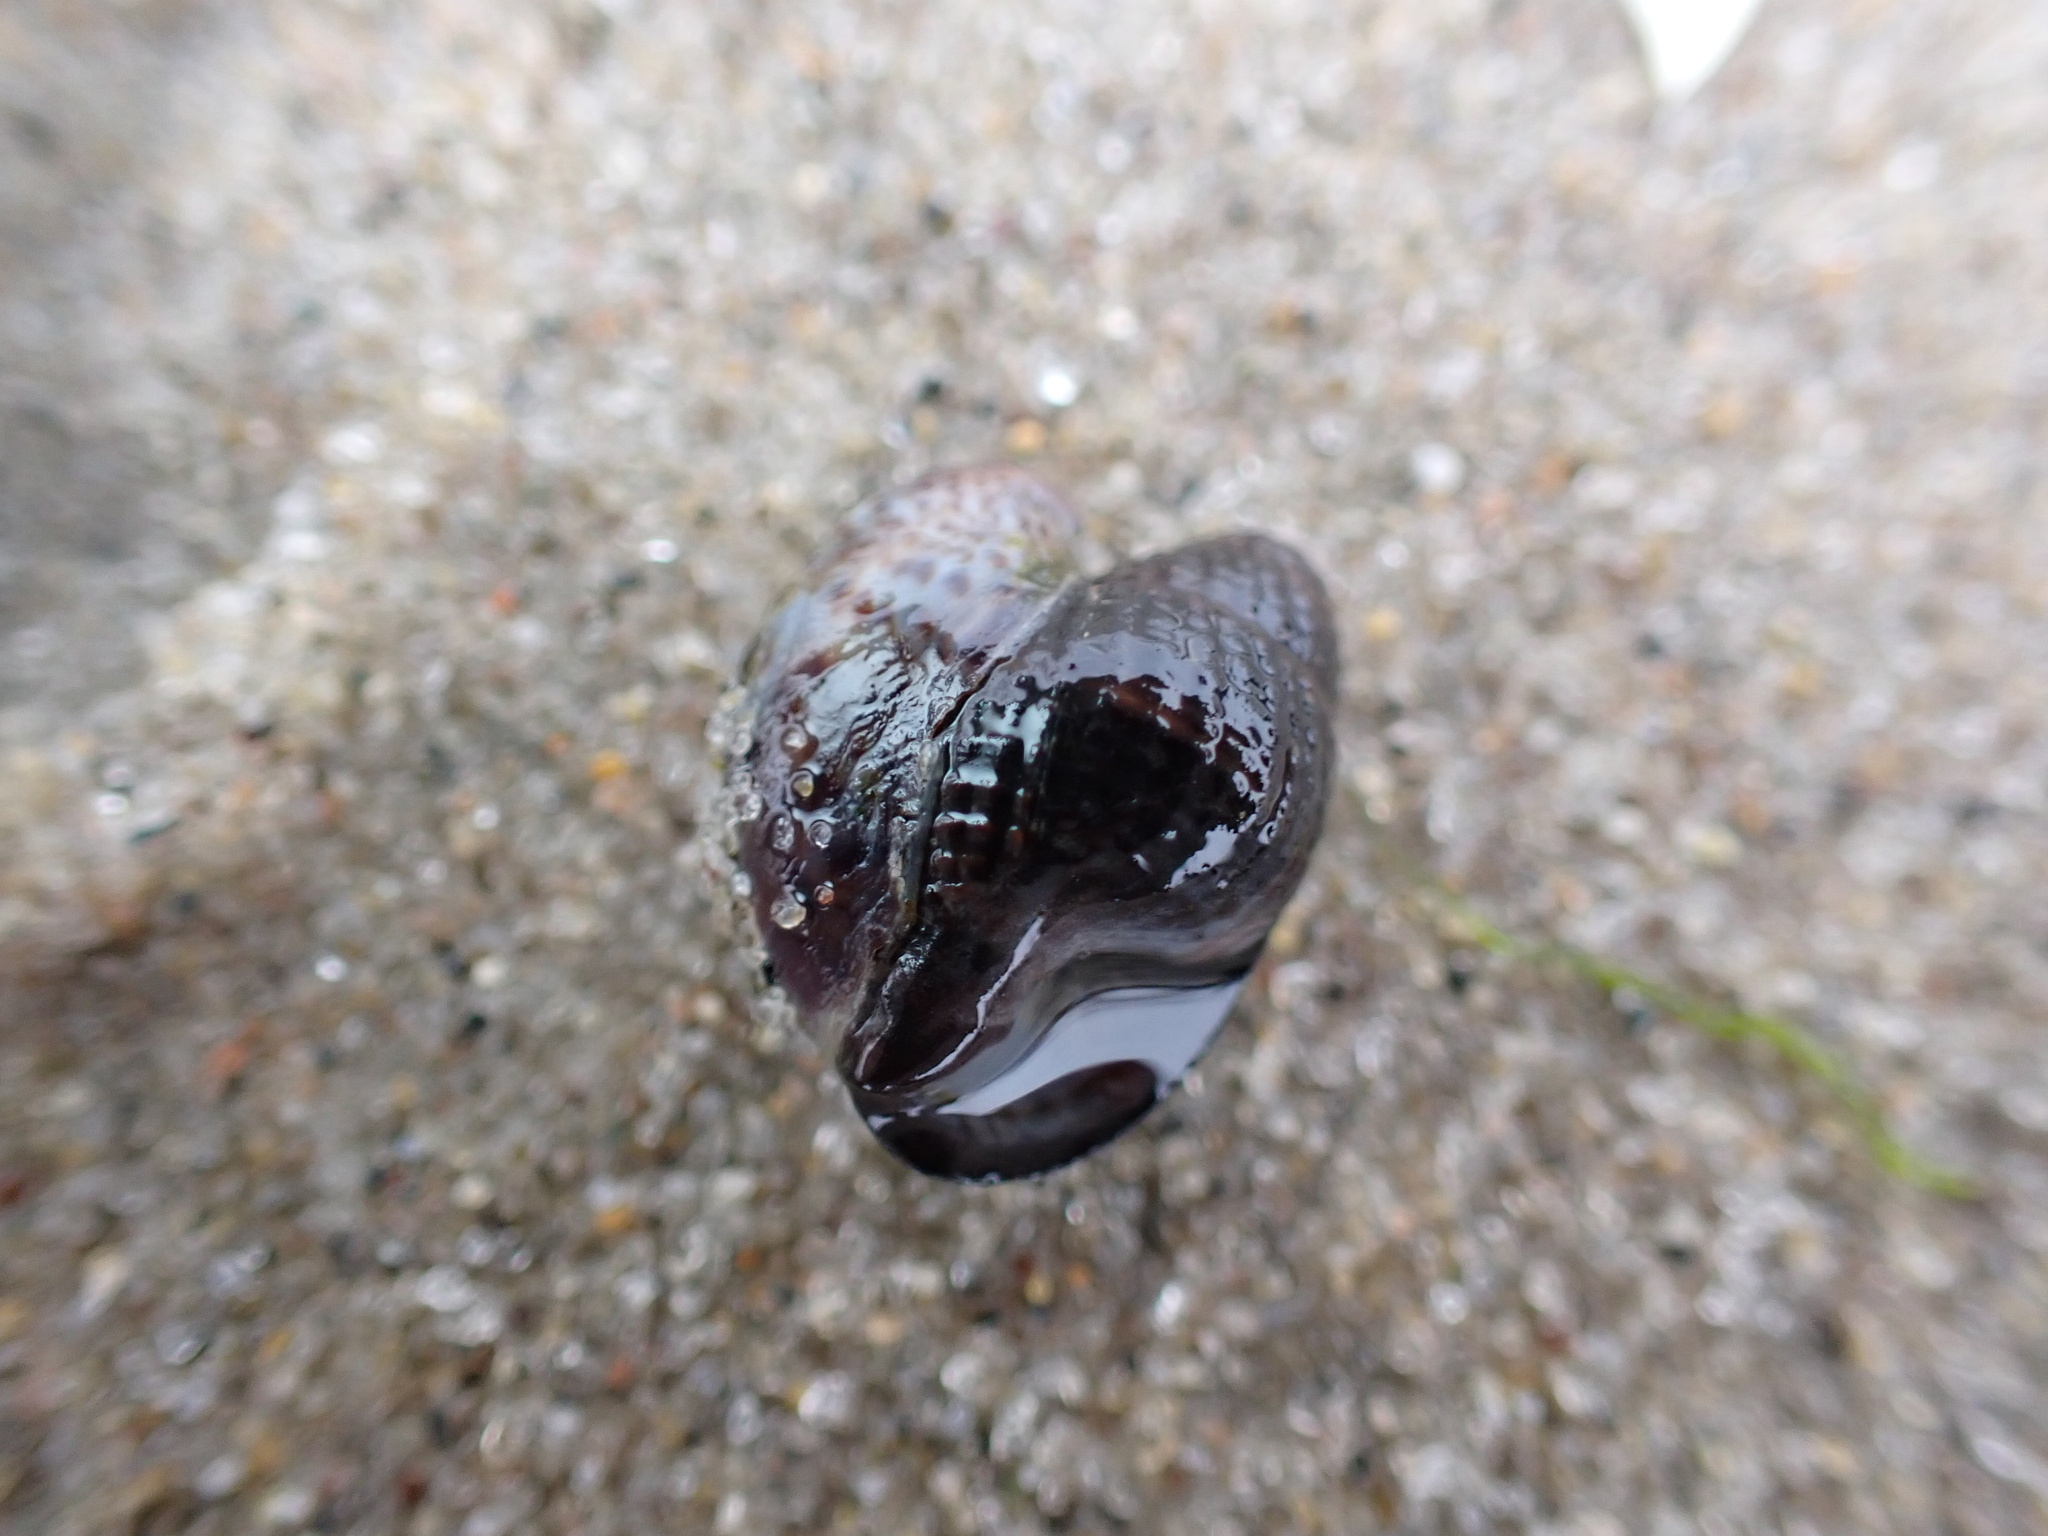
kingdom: Animalia
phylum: Mollusca
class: Gastropoda
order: Neogastropoda
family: Nassariidae
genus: Ilyanassa
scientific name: Ilyanassa obsoleta
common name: Eastern mudsnail
